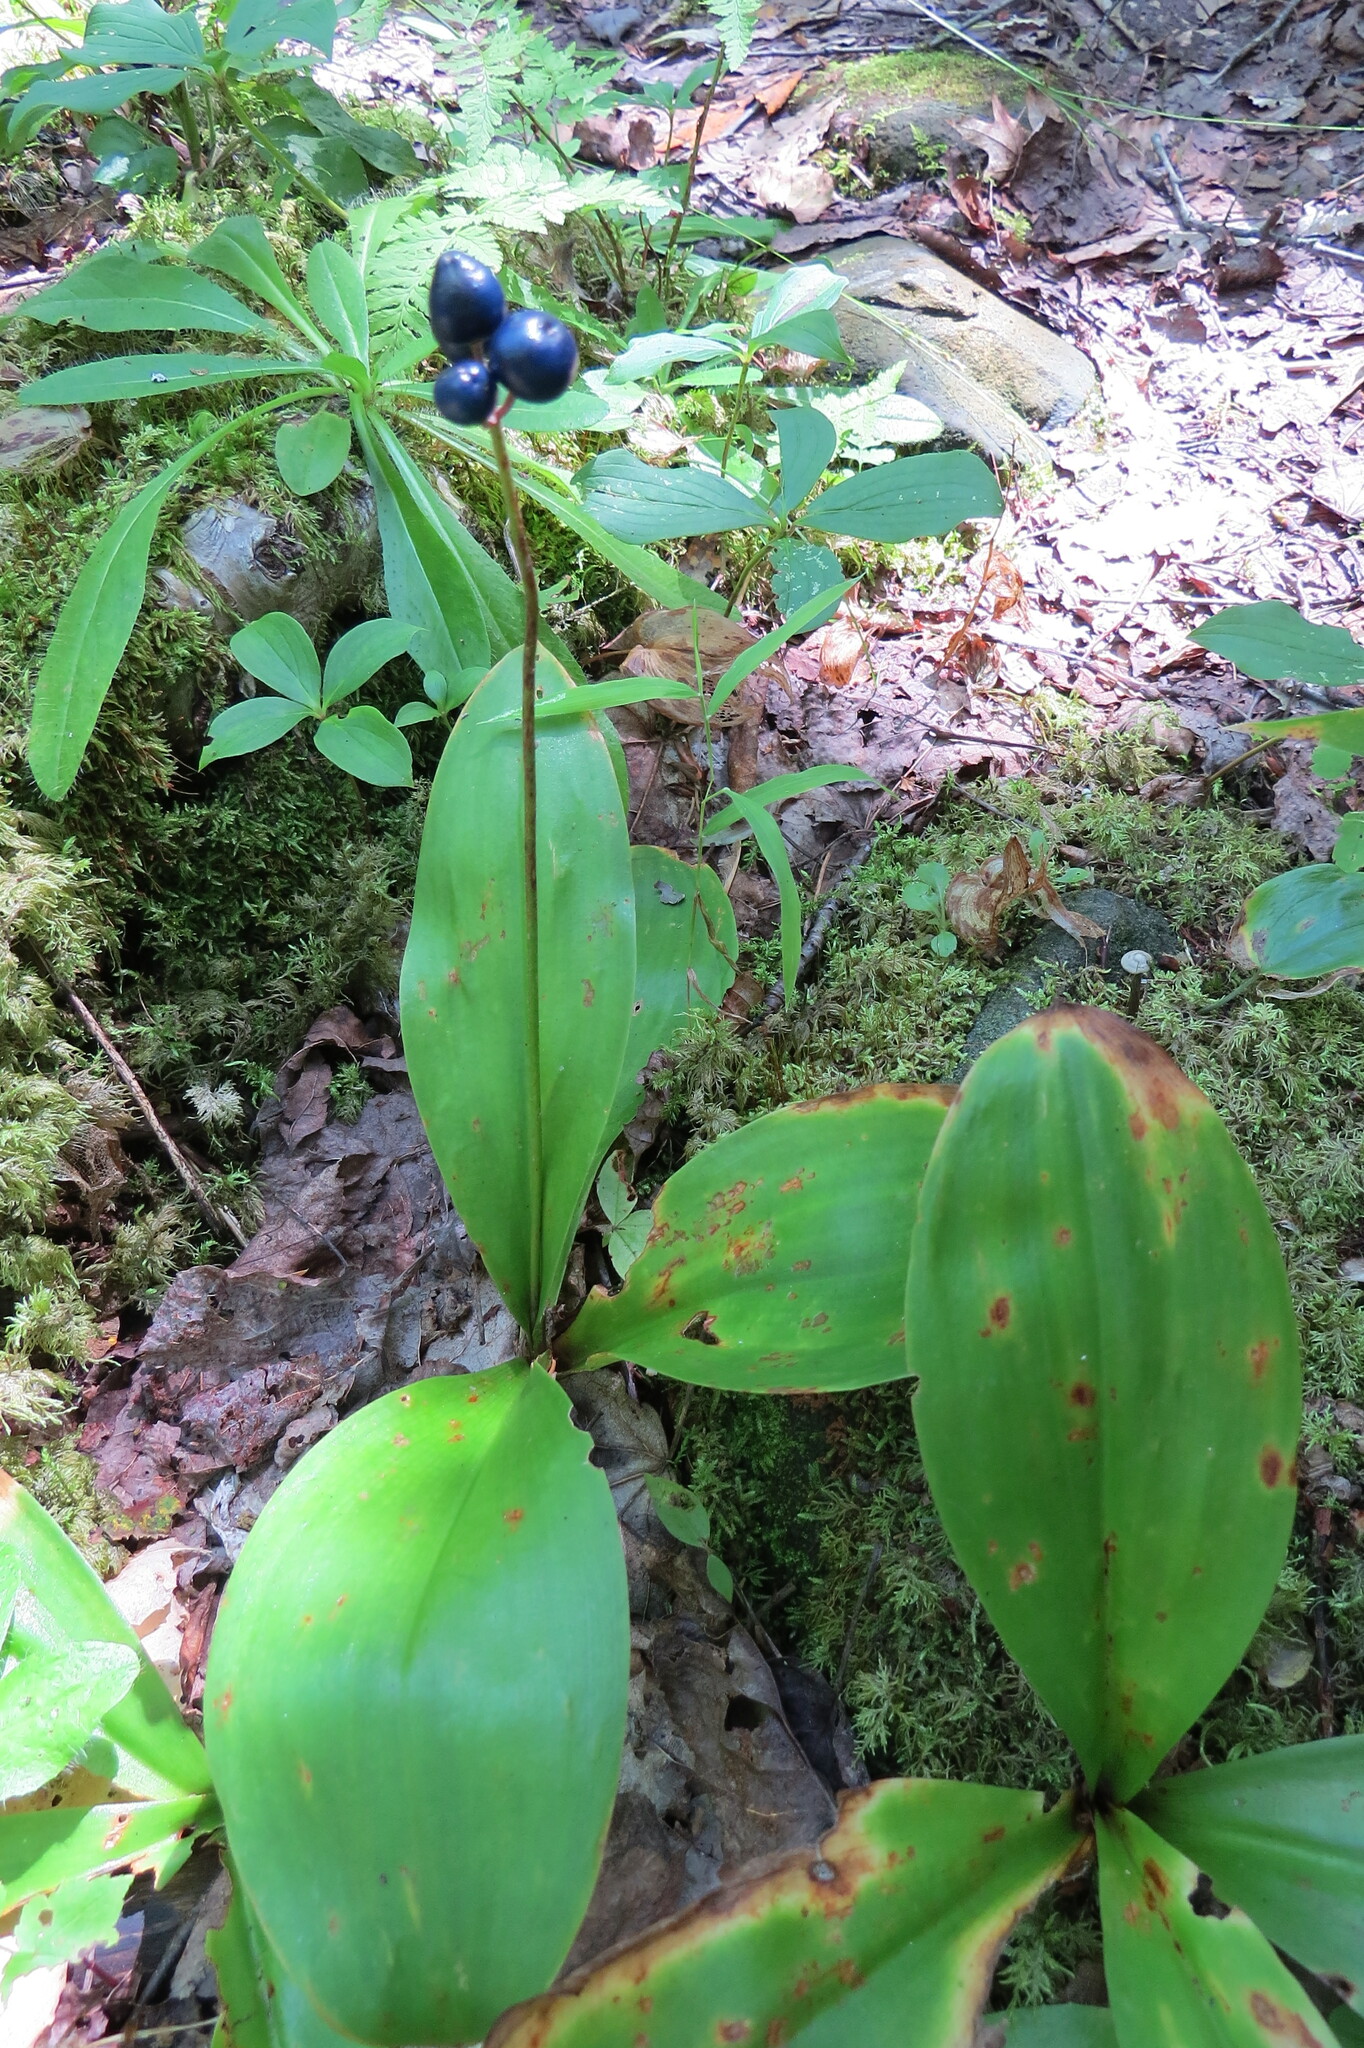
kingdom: Plantae
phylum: Tracheophyta
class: Liliopsida
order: Liliales
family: Liliaceae
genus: Clintonia
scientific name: Clintonia borealis
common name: Yellow clintonia
